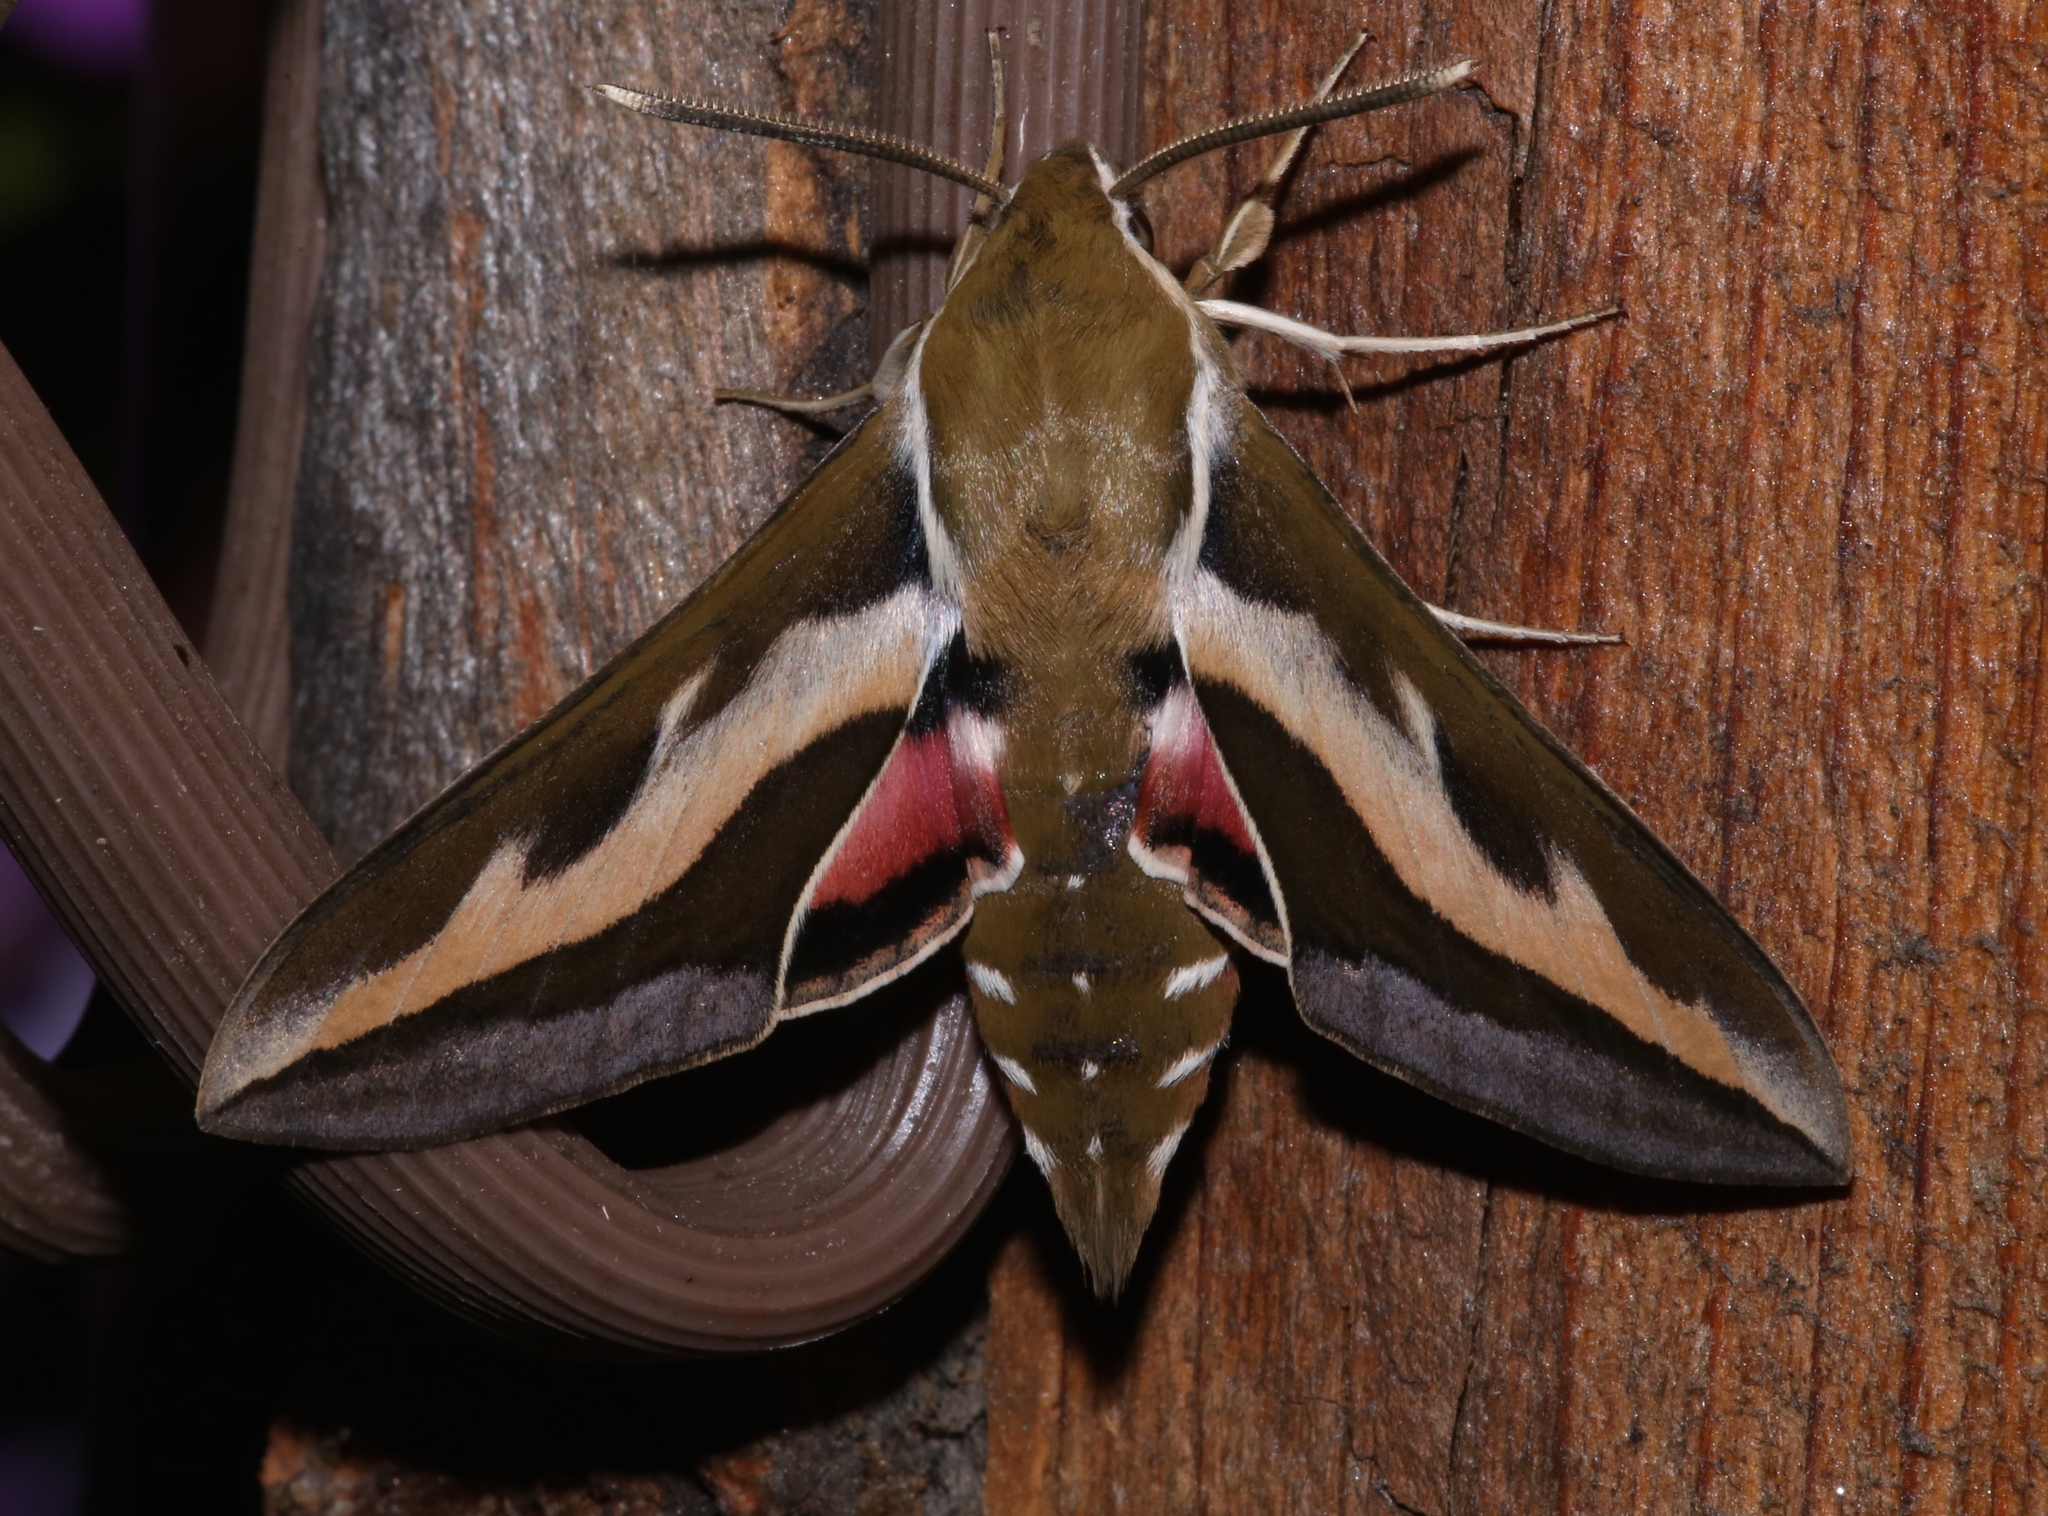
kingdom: Animalia
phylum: Arthropoda
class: Insecta
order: Lepidoptera
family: Sphingidae
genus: Hyles
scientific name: Hyles gallii
